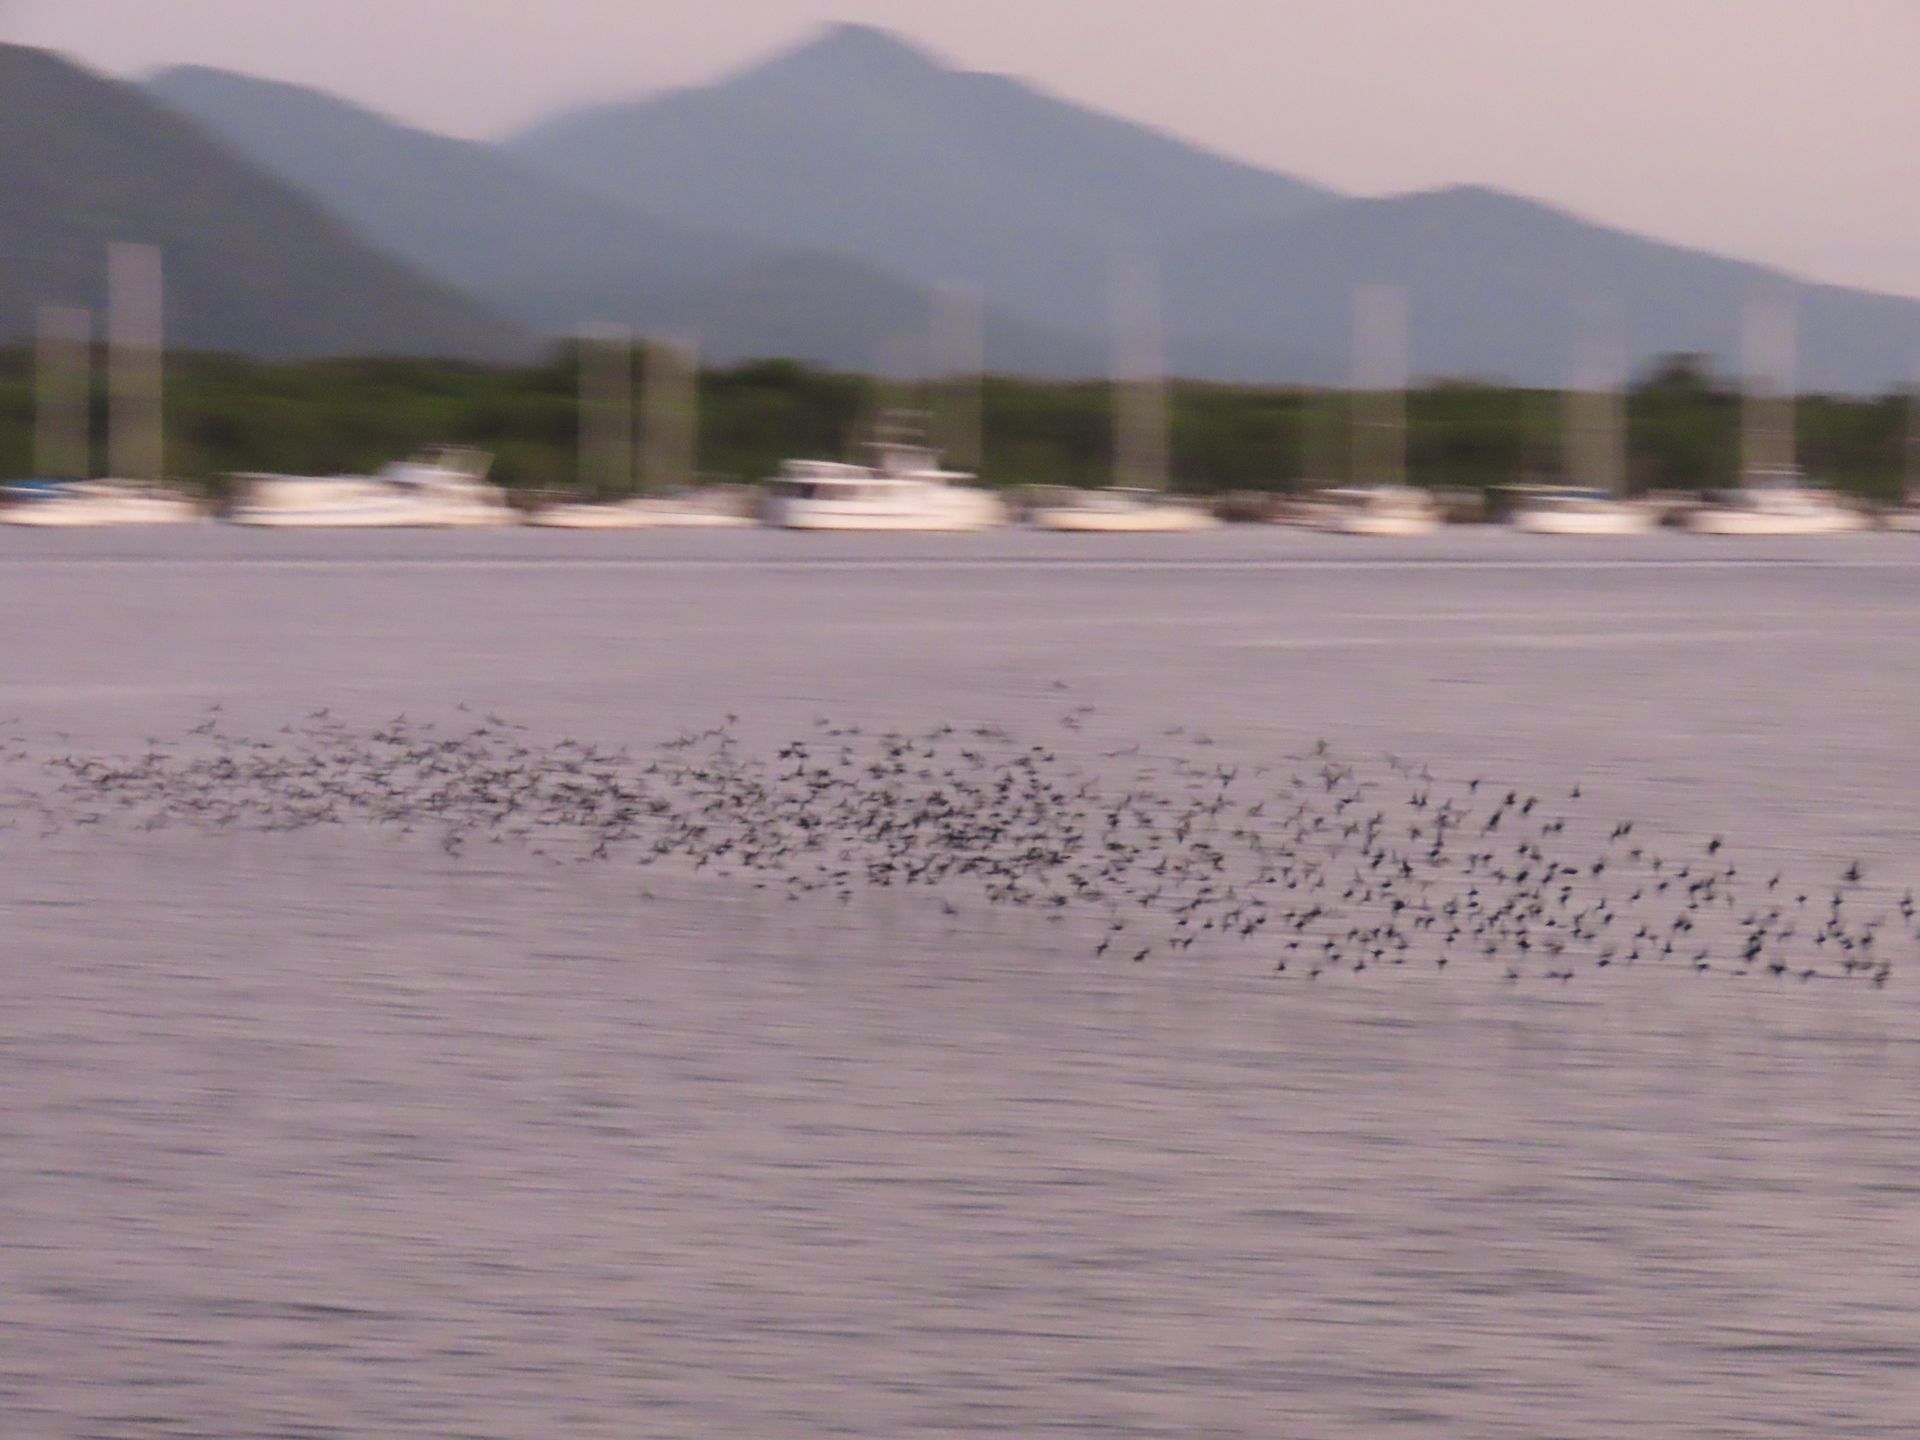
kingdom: Animalia
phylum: Chordata
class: Aves
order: Passeriformes
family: Sturnidae
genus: Aplonis
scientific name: Aplonis metallica
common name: Metallic starling
